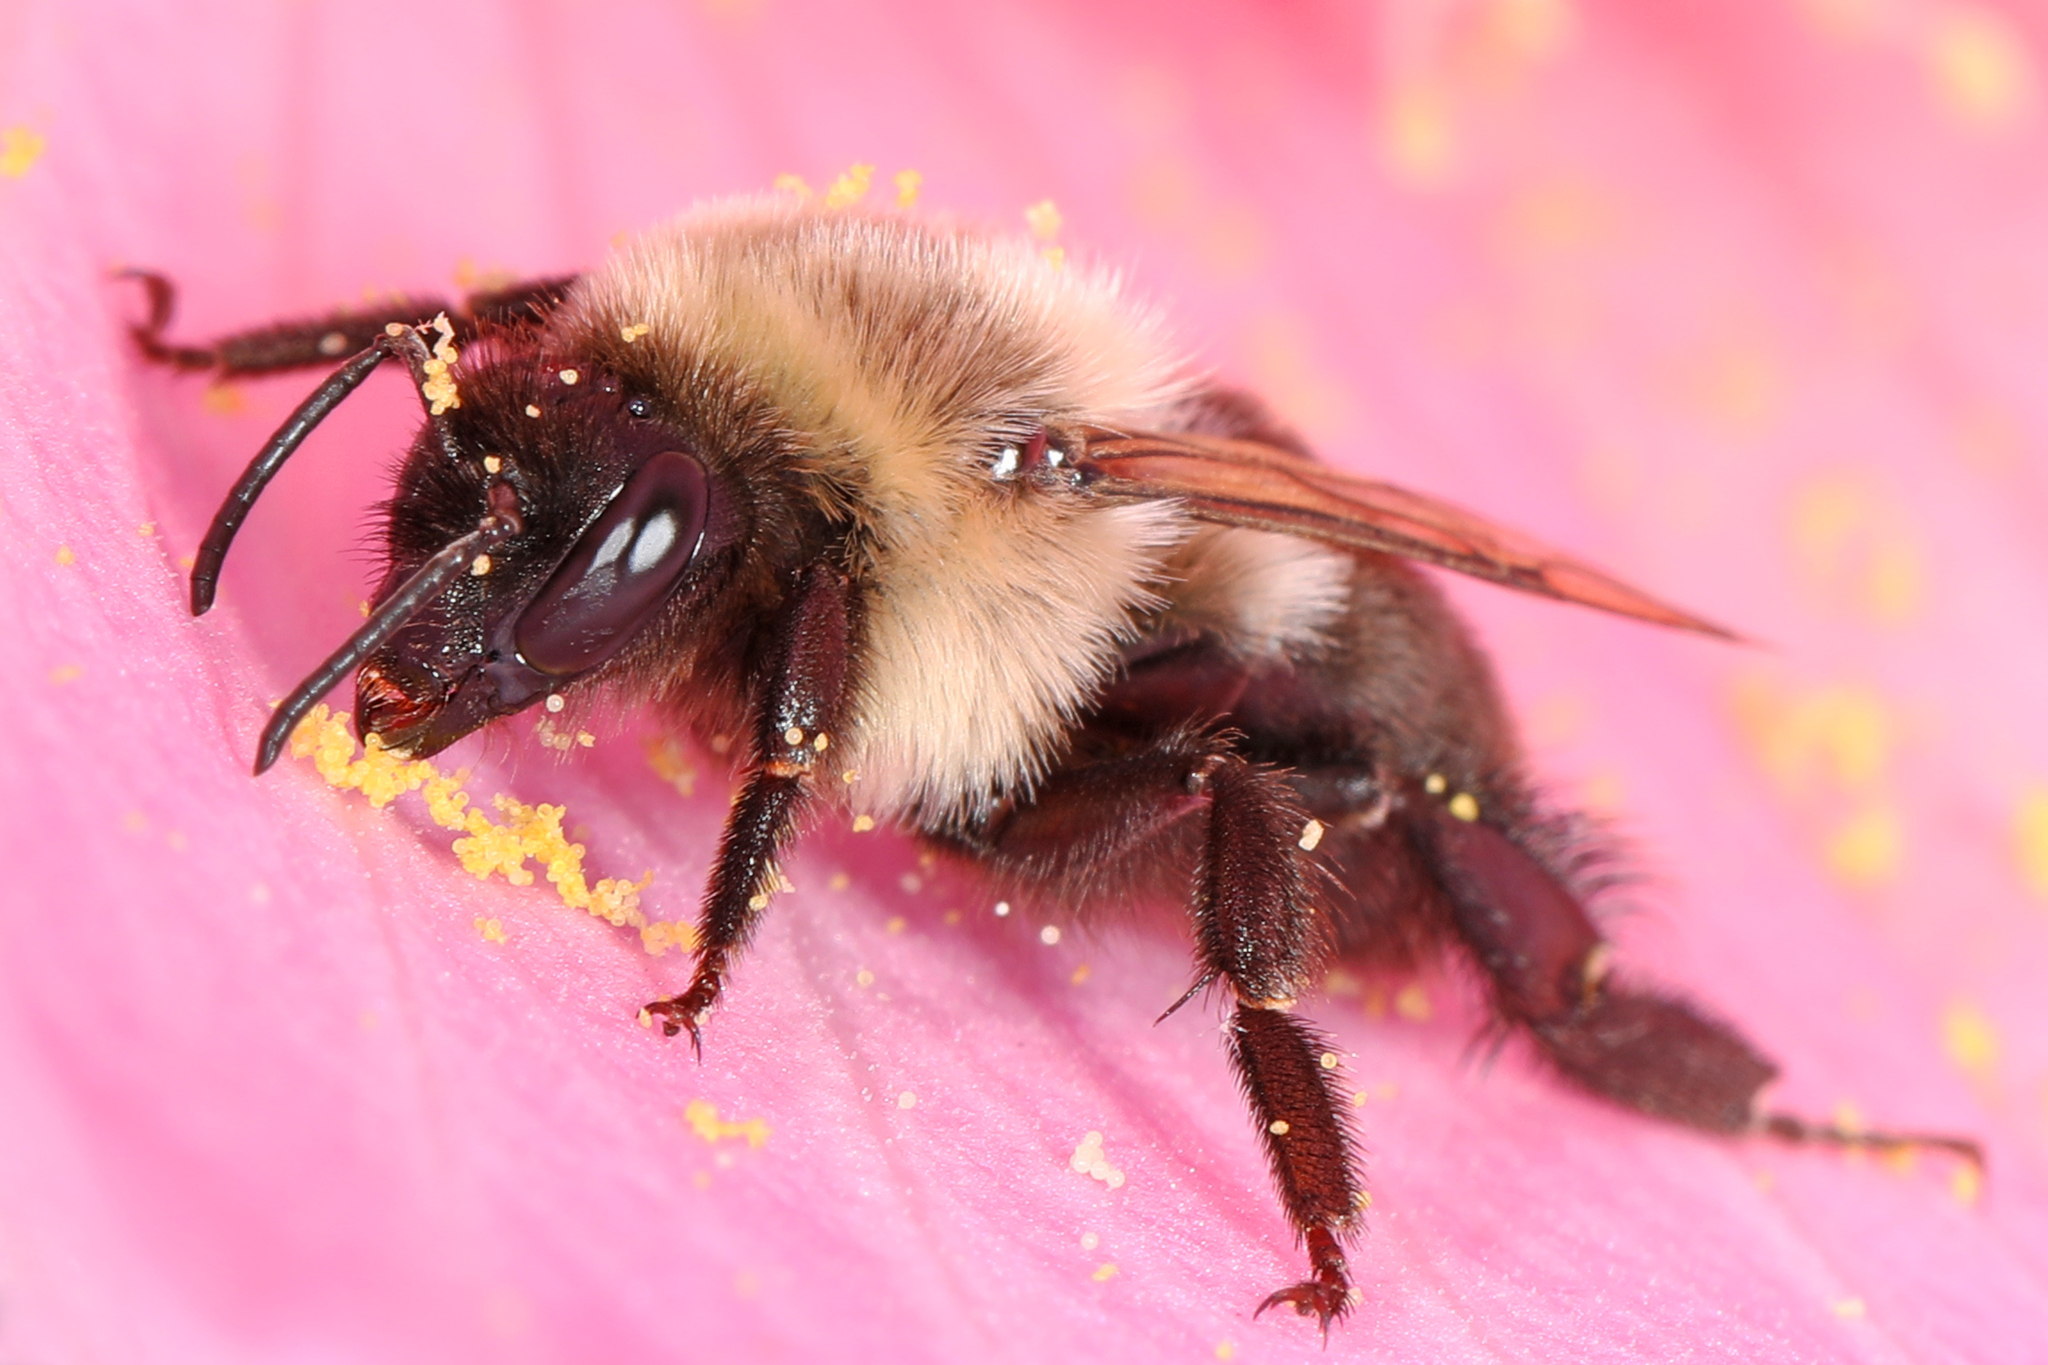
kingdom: Animalia
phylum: Arthropoda
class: Insecta
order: Hymenoptera
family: Apidae
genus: Bombus
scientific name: Bombus impatiens
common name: Common eastern bumble bee
